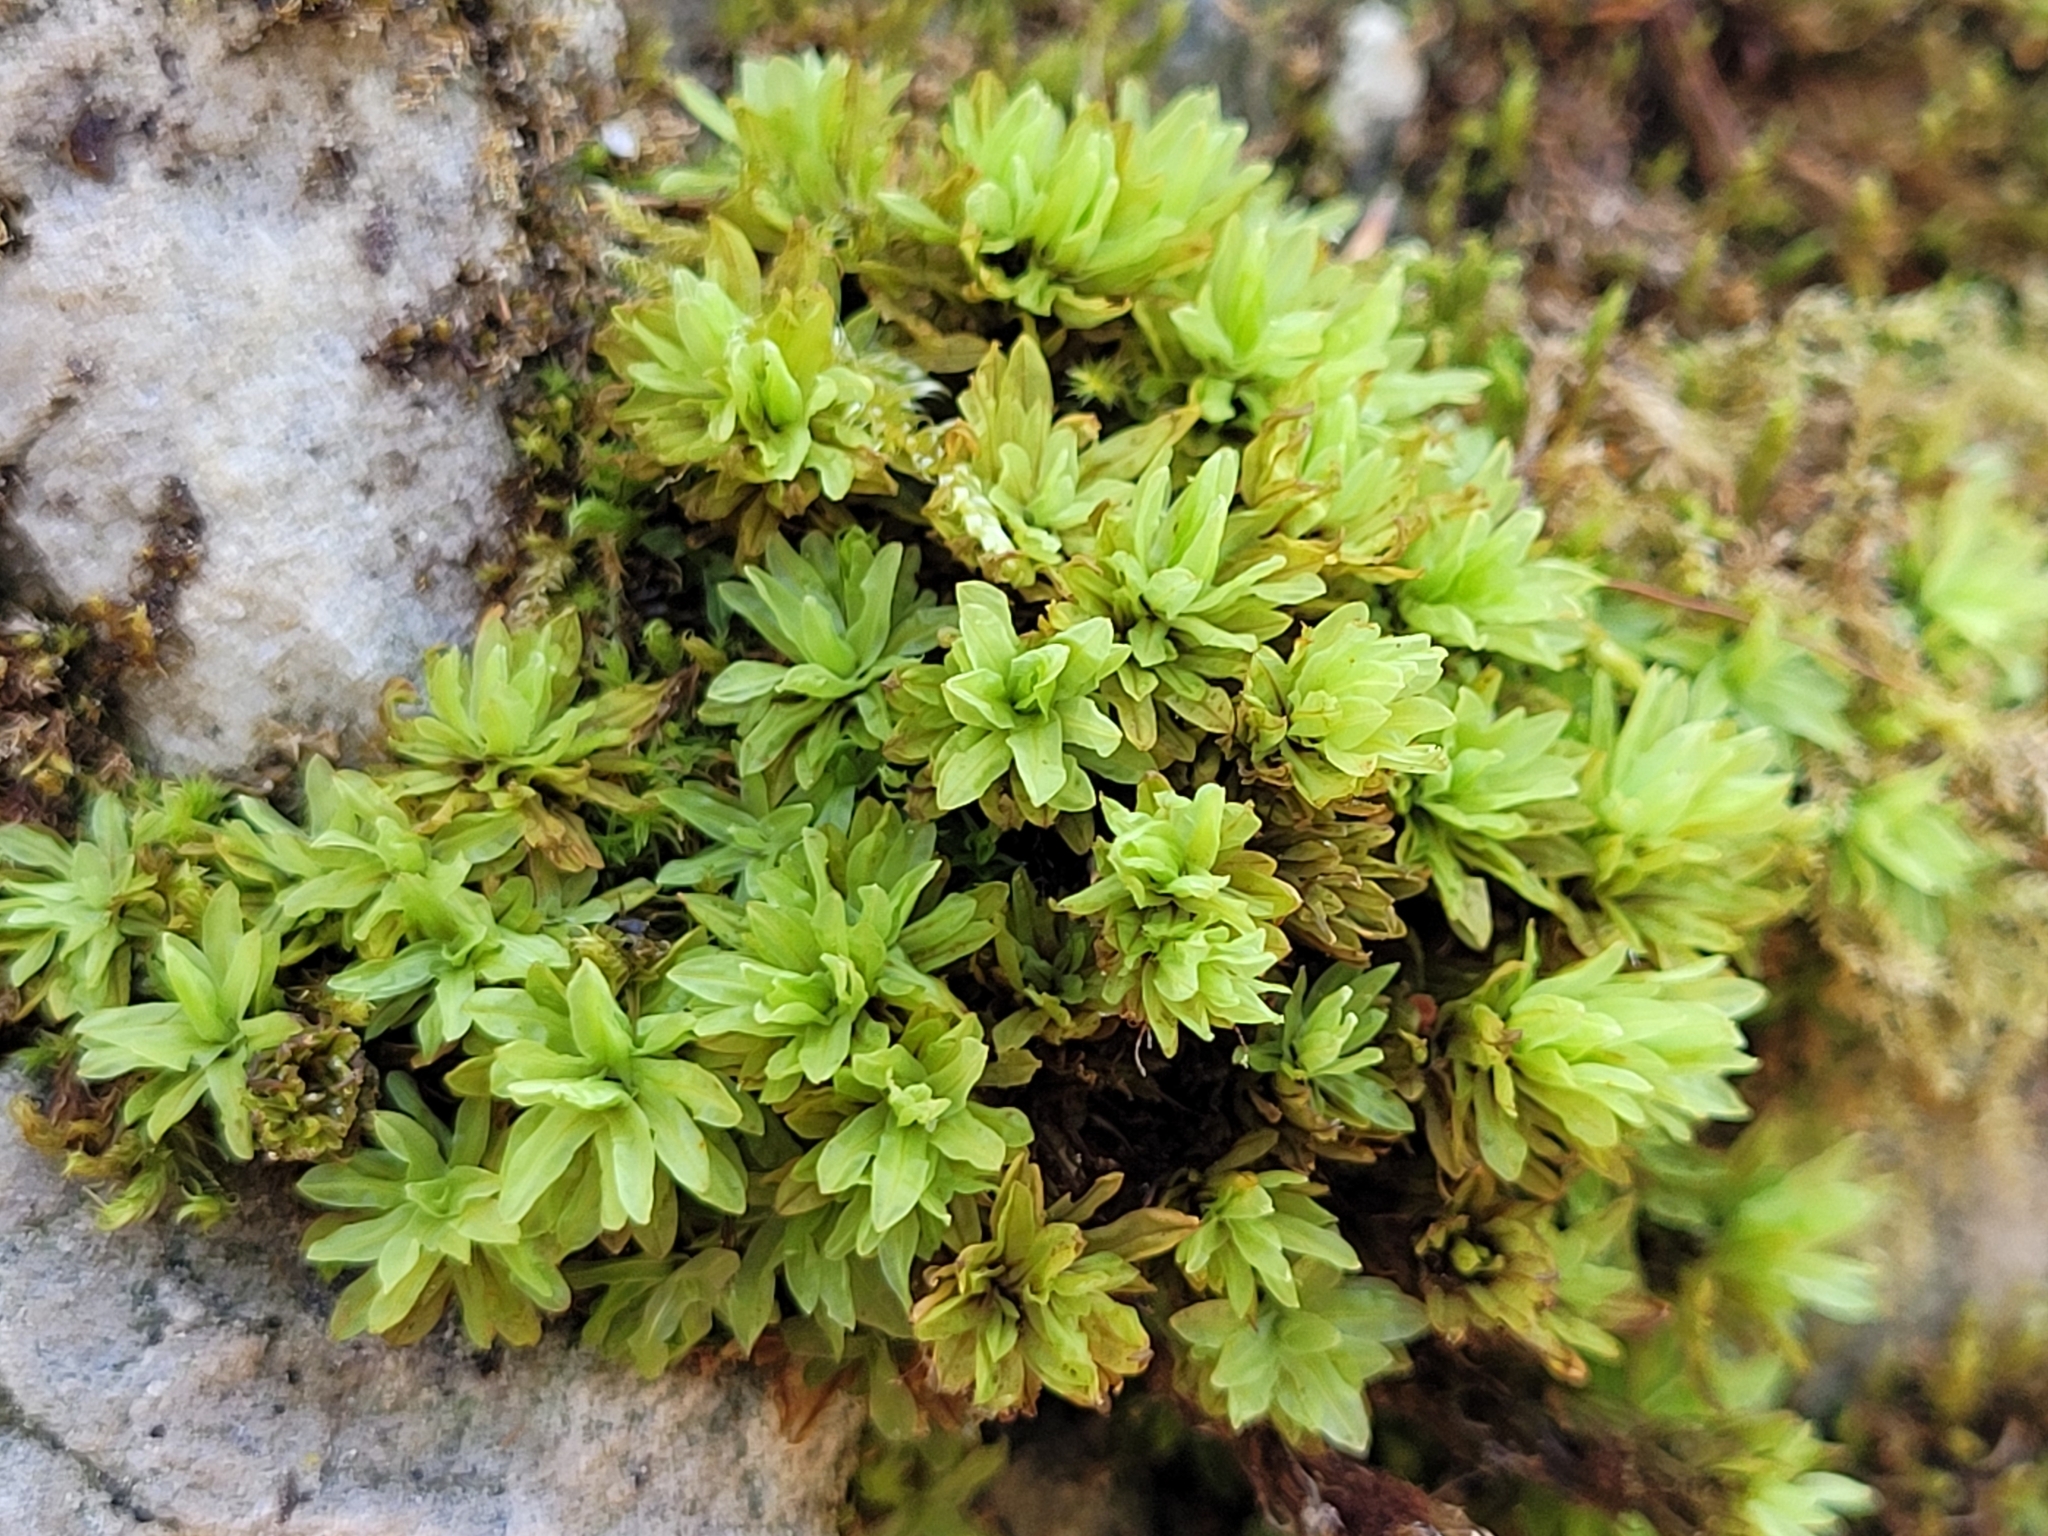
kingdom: Plantae
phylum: Bryophyta
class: Bryopsida
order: Encalyptales
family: Encalyptaceae
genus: Encalypta
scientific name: Encalypta streptocarpa
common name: Spiral extinguisher-moss
